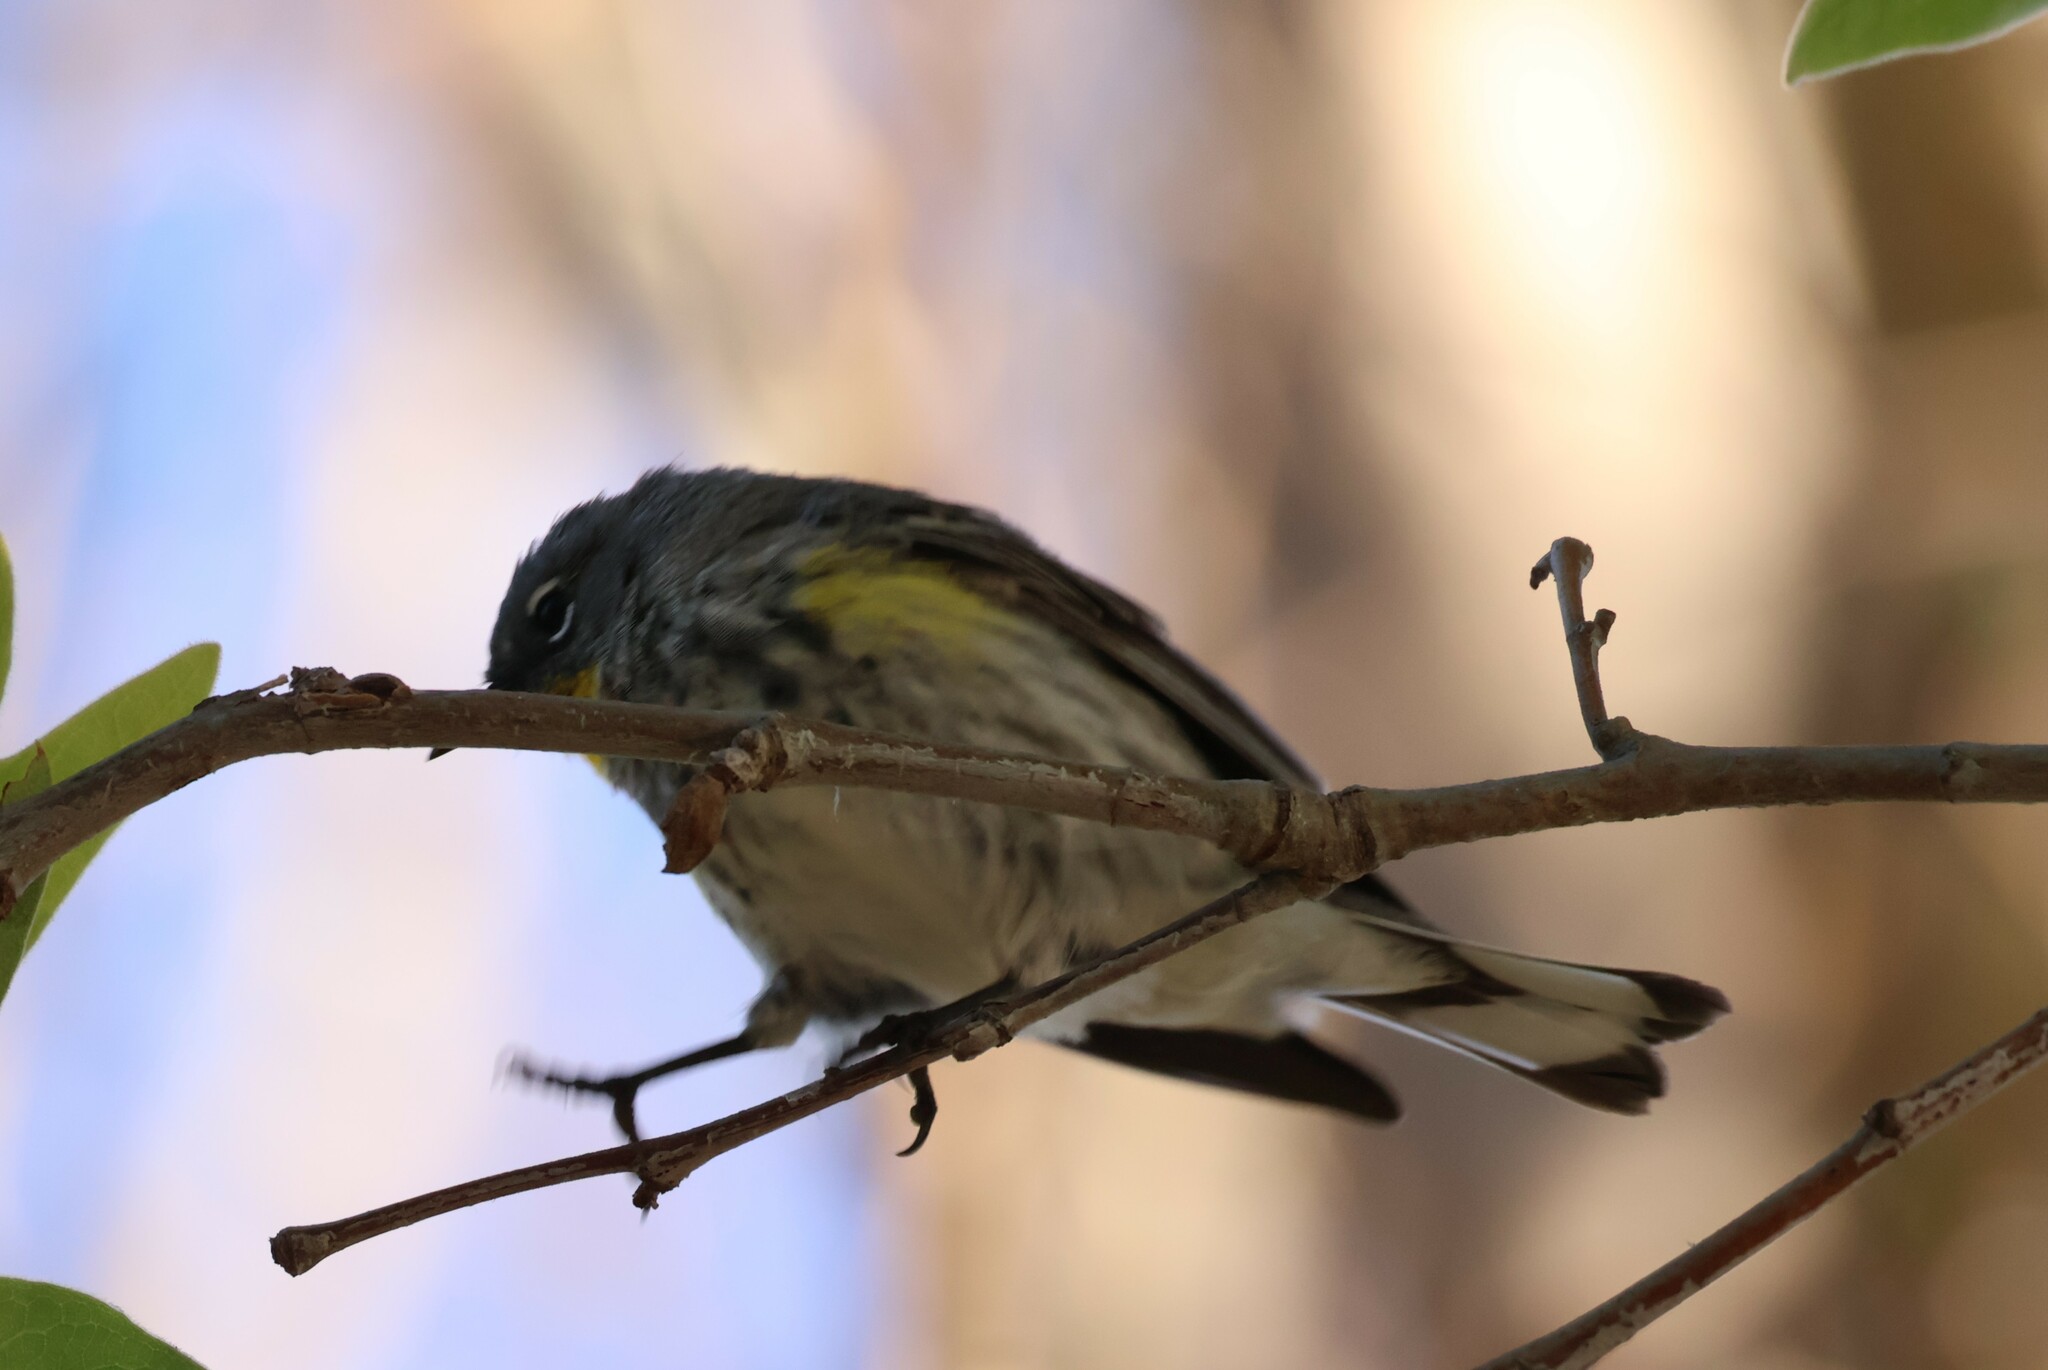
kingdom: Animalia
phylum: Chordata
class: Aves
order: Passeriformes
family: Parulidae
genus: Setophaga
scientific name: Setophaga auduboni
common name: Audubon's warbler
